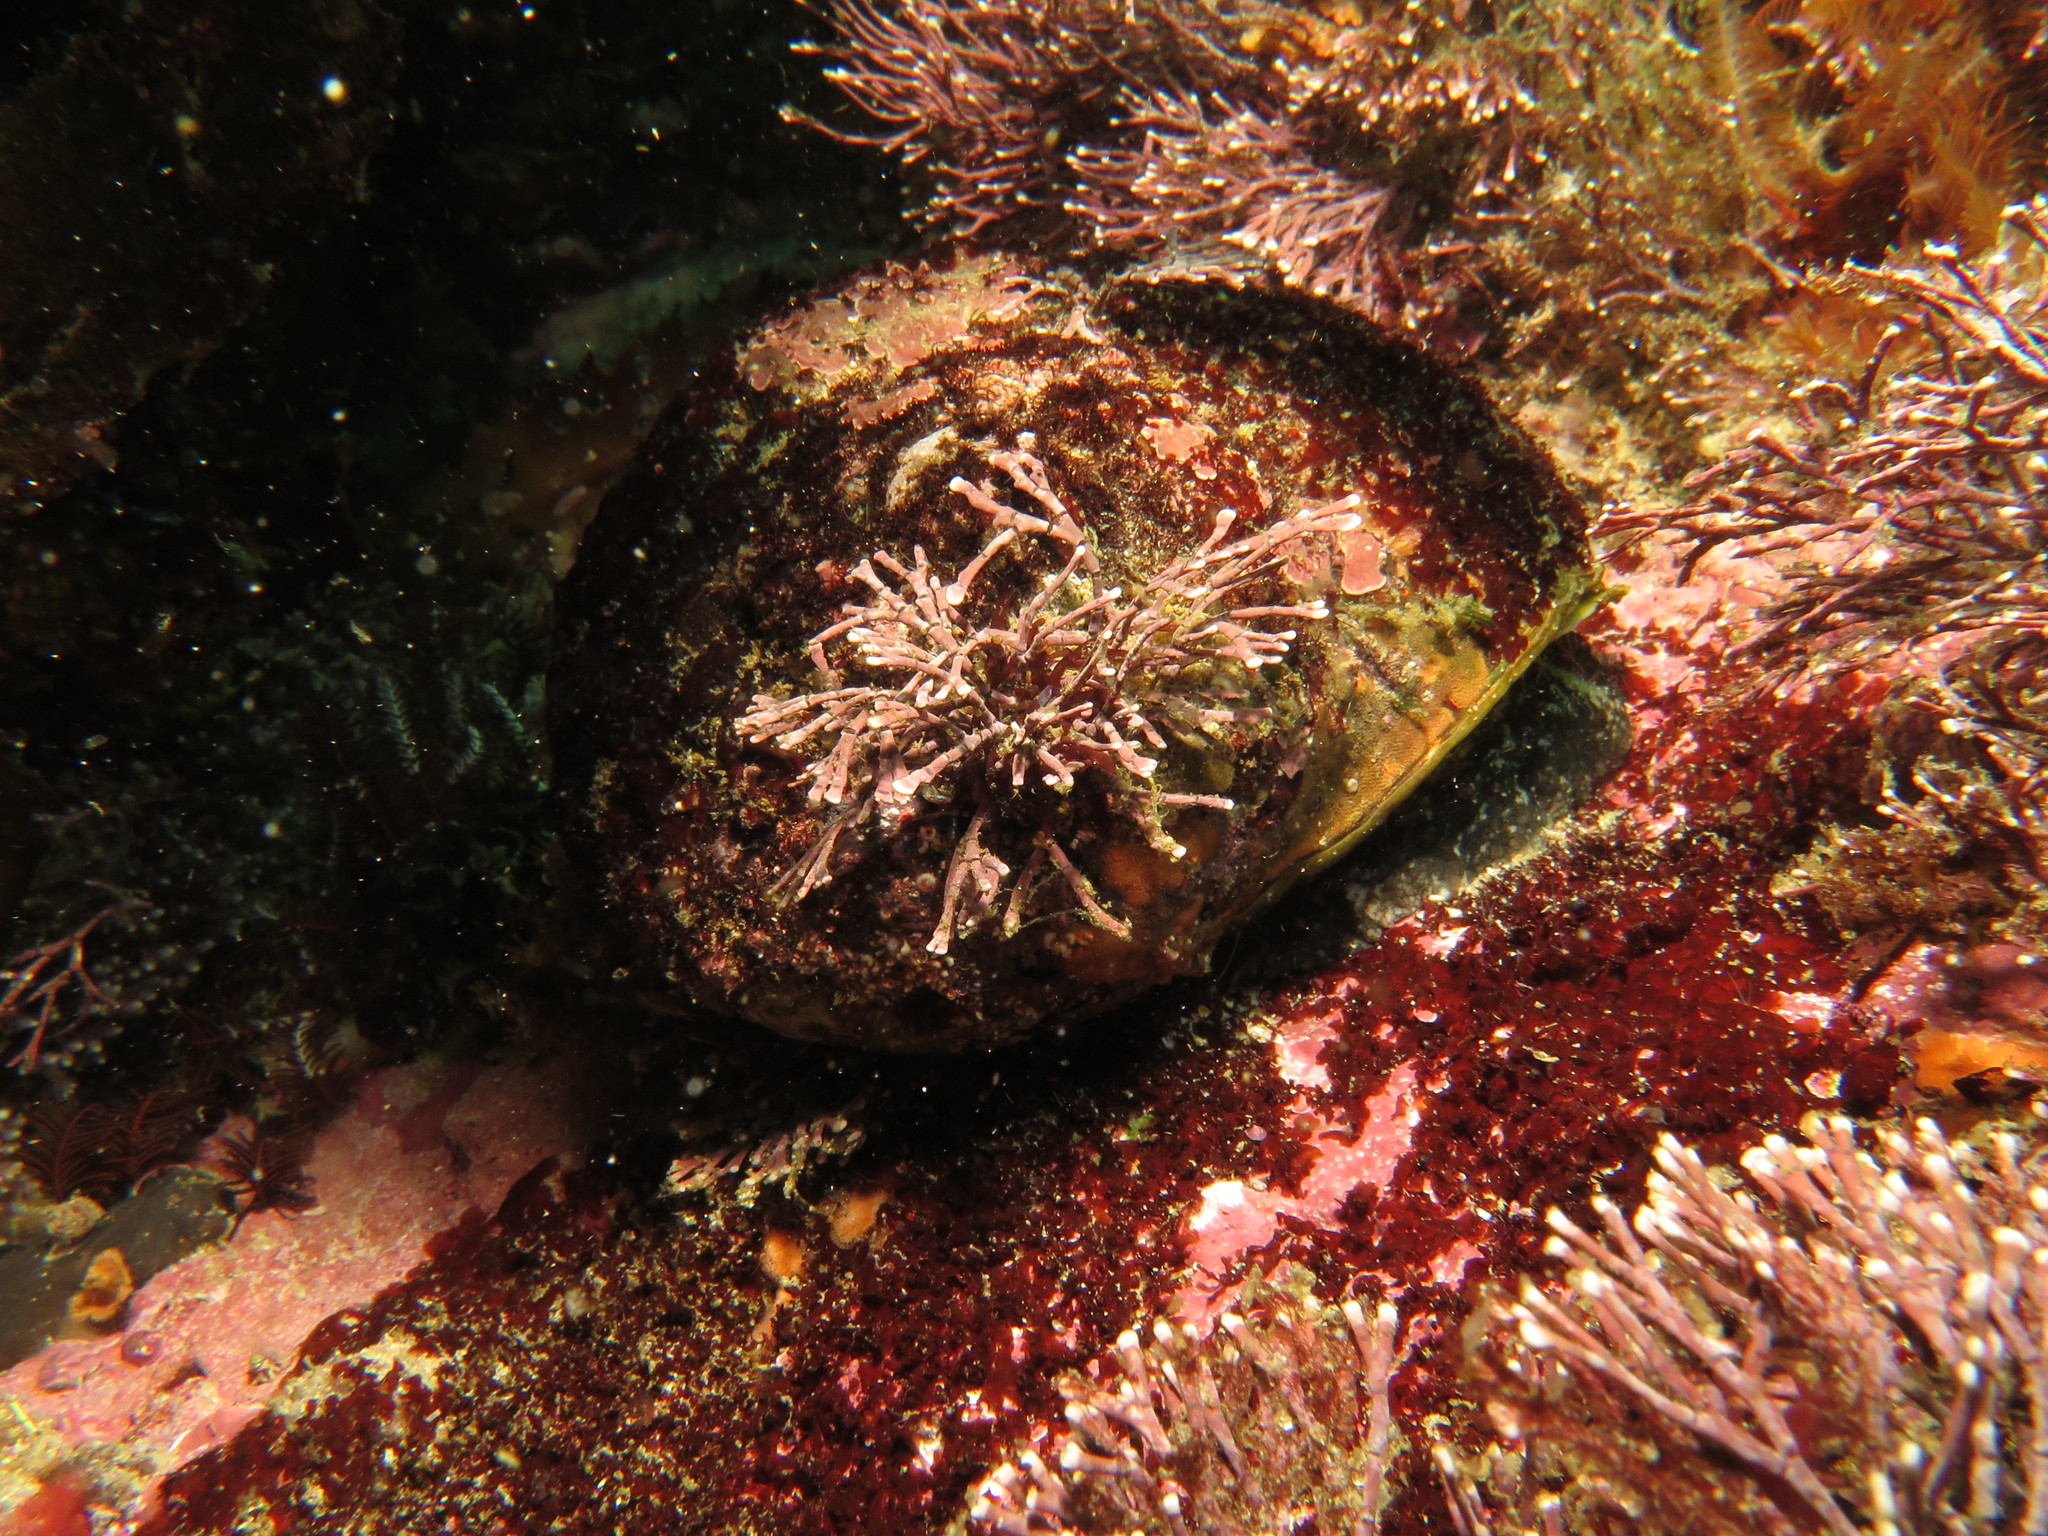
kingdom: Animalia
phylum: Mollusca
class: Gastropoda
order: Trochida
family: Turbinidae
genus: Turbo
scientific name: Turbo sarmaticus
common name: South african turban
